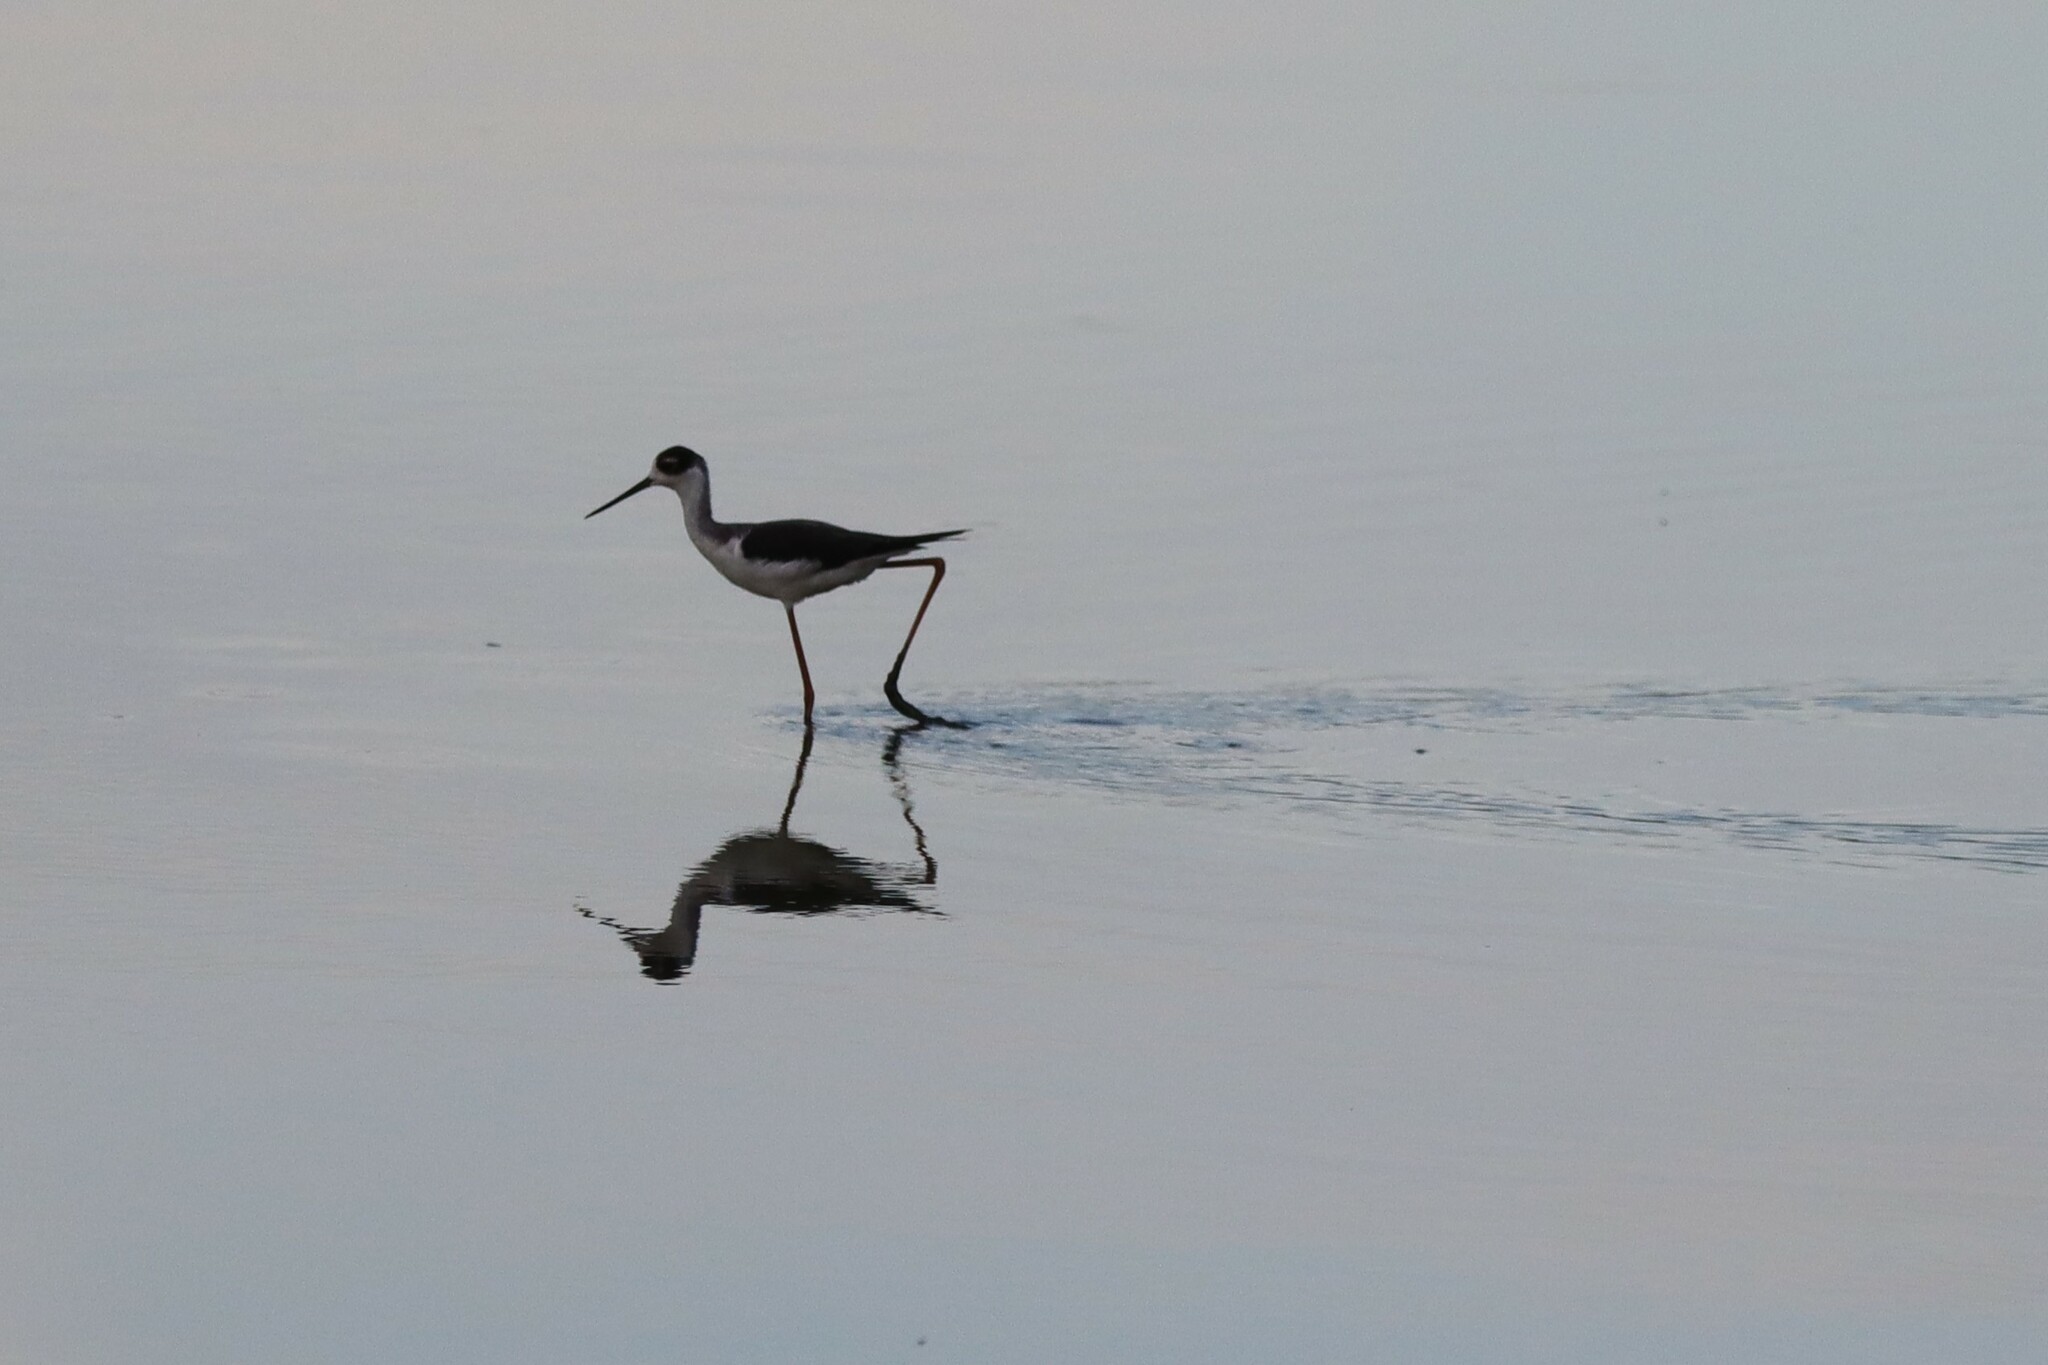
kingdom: Animalia
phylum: Chordata
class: Aves
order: Charadriiformes
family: Recurvirostridae
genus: Himantopus
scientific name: Himantopus mexicanus
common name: Black-necked stilt
